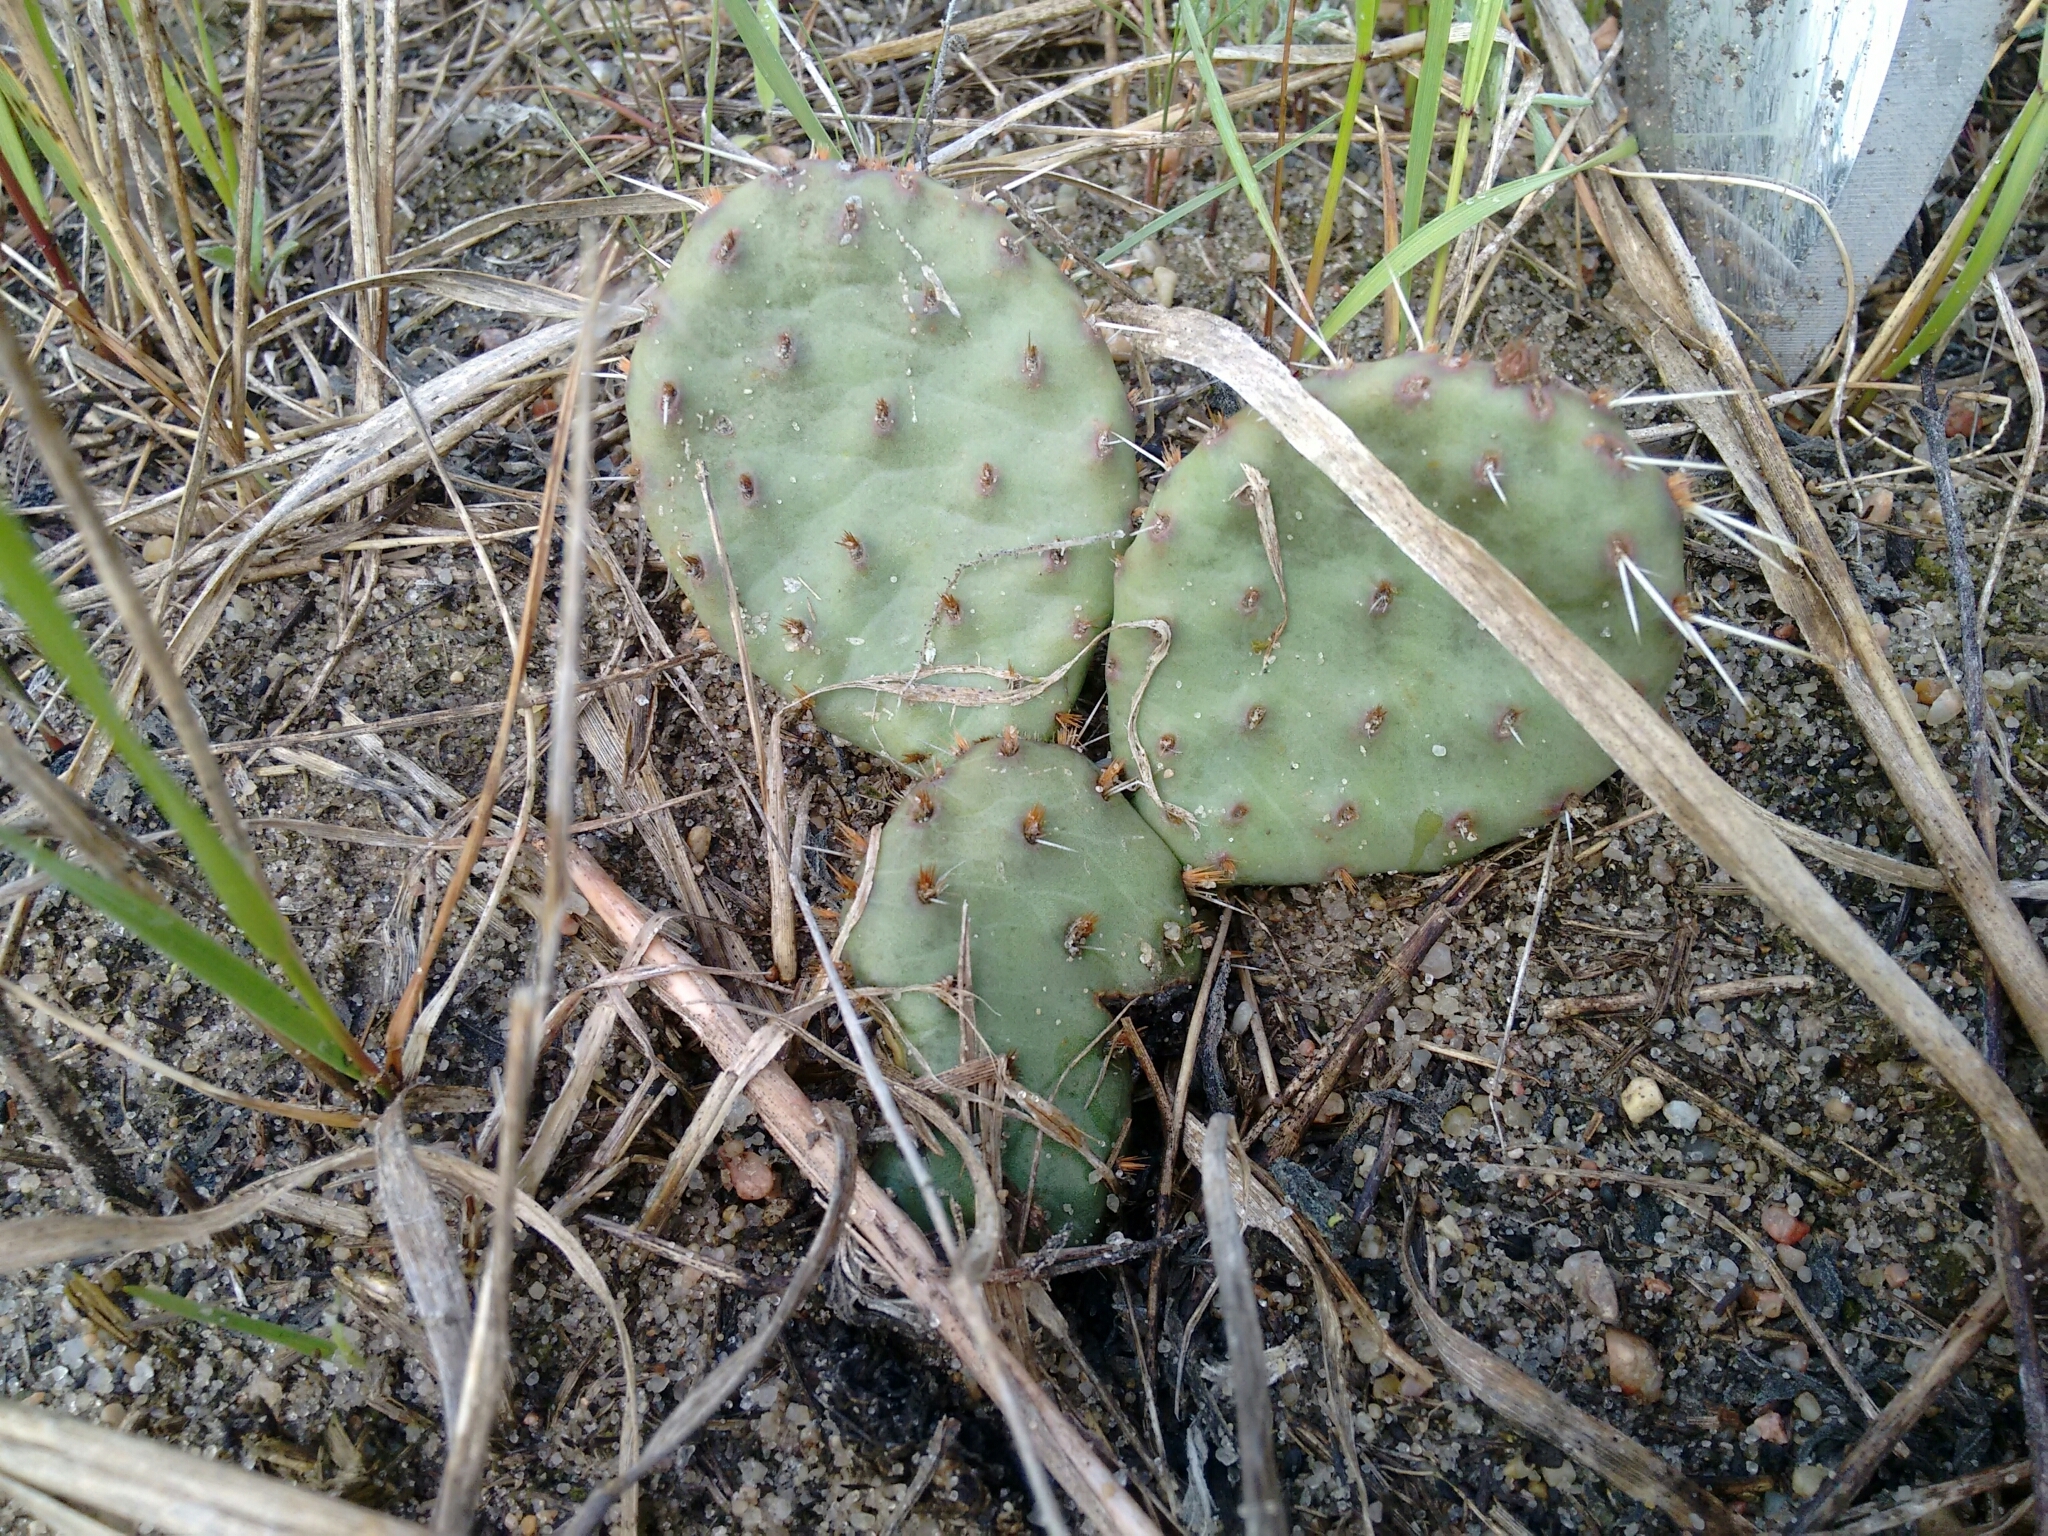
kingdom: Plantae
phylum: Tracheophyta
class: Magnoliopsida
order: Caryophyllales
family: Cactaceae
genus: Opuntia
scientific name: Opuntia macrorhiza
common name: Grassland pricklypear
